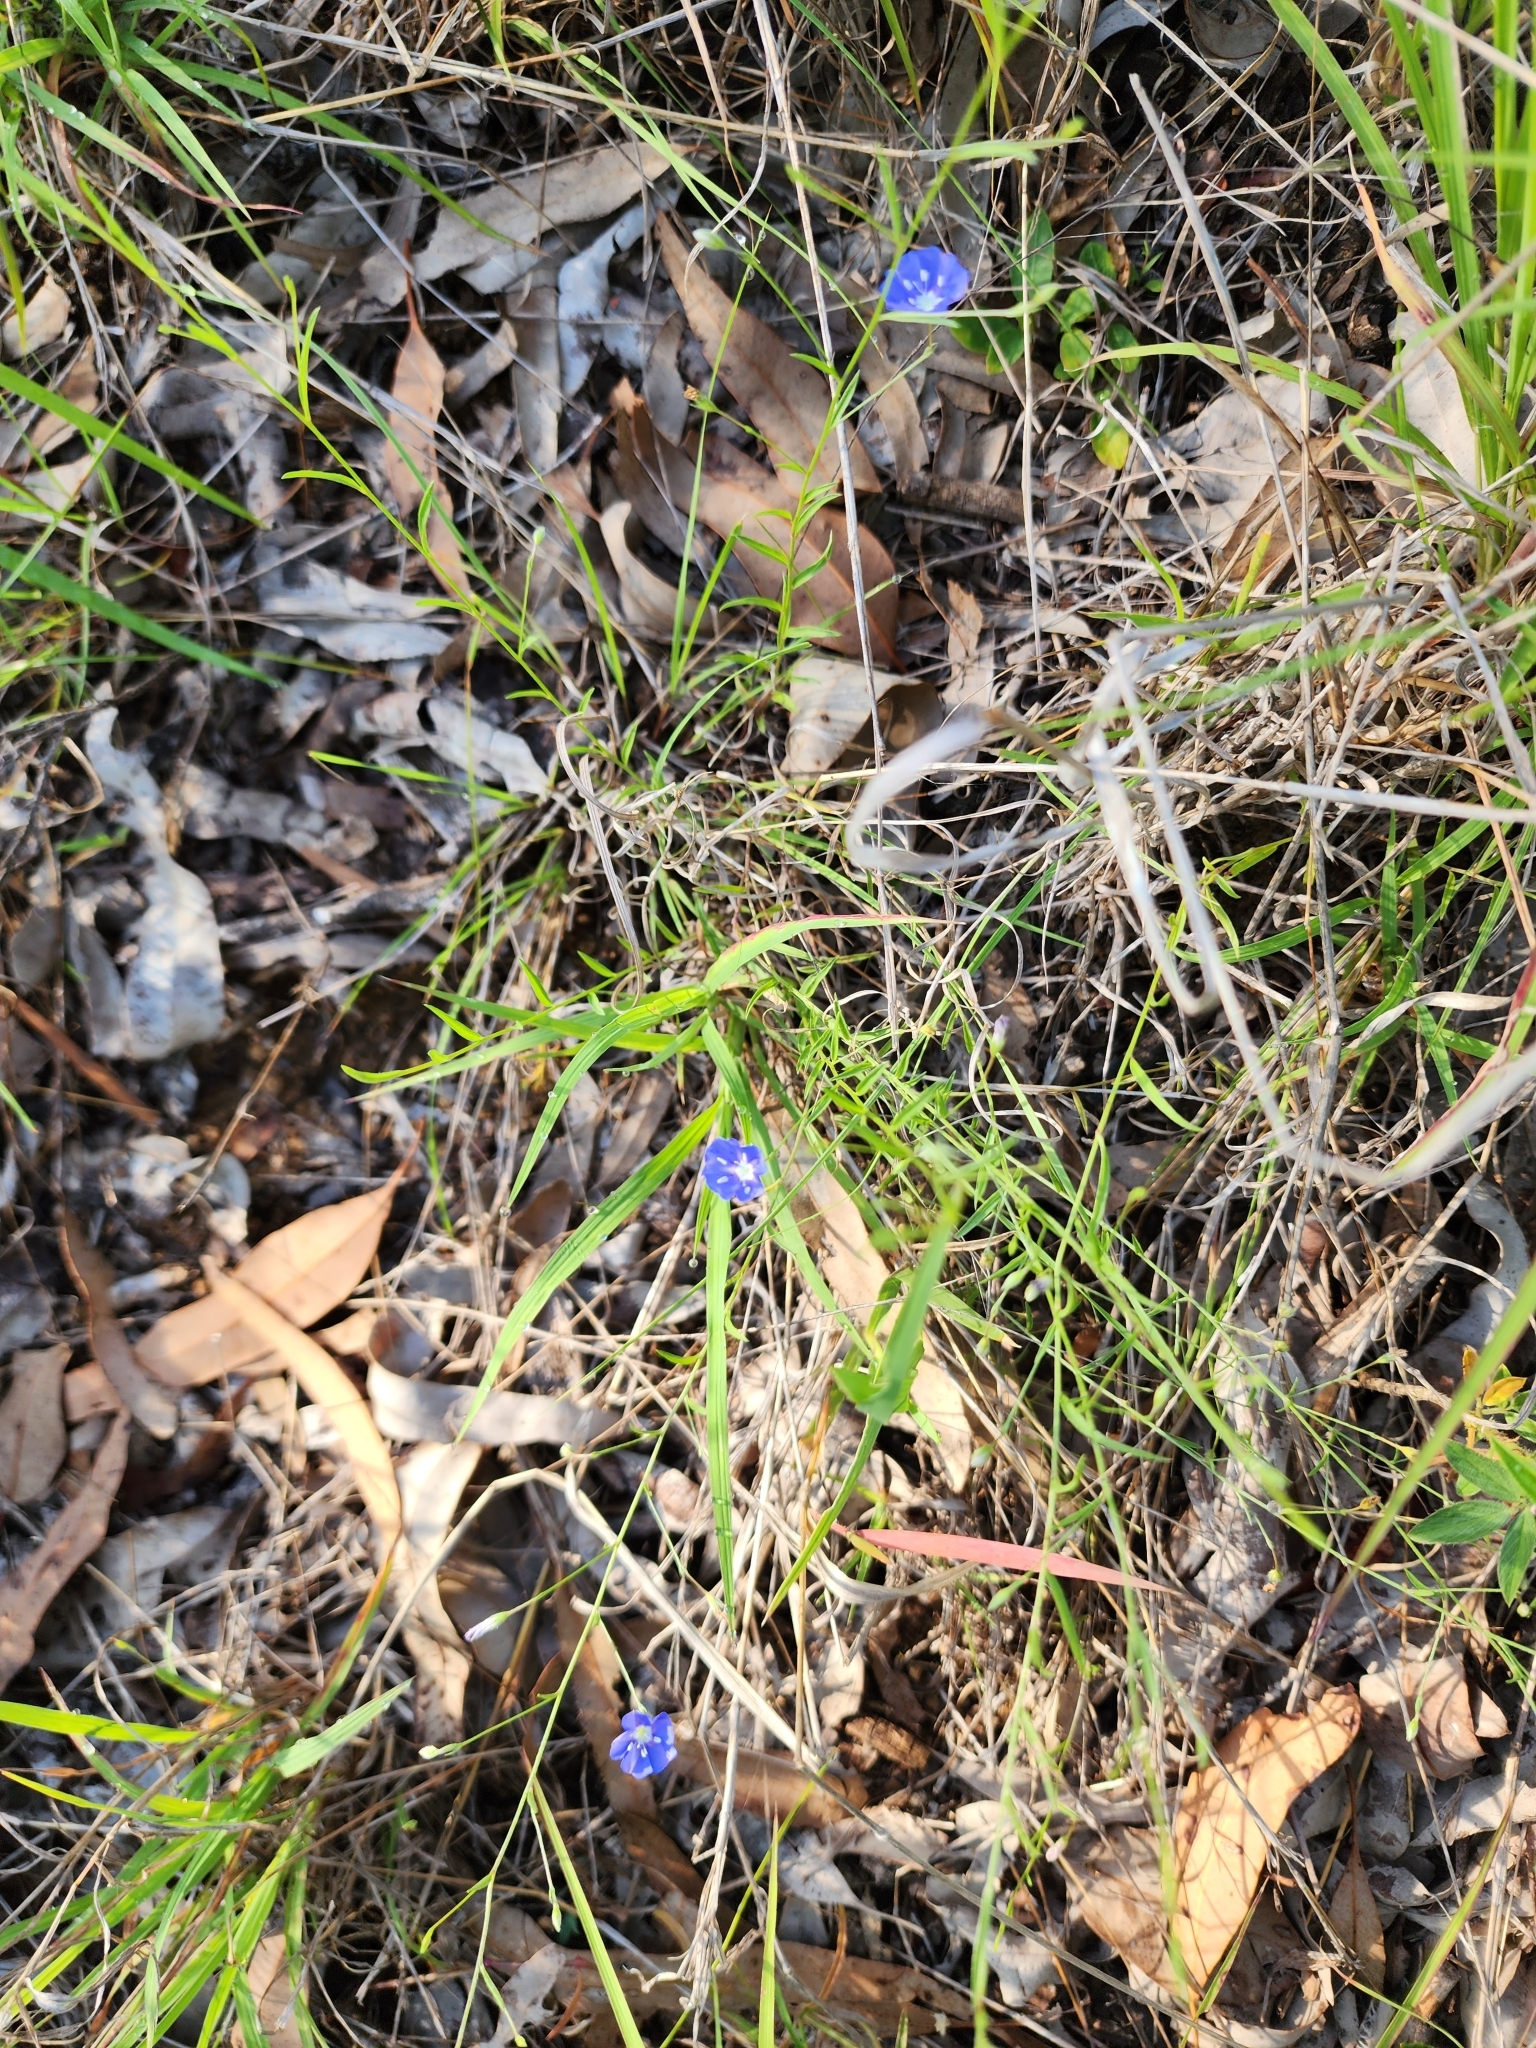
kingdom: Plantae
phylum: Tracheophyta
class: Magnoliopsida
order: Solanales
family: Convolvulaceae
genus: Evolvulus
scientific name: Evolvulus alsinoides
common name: Slender dwarf morning-glory
